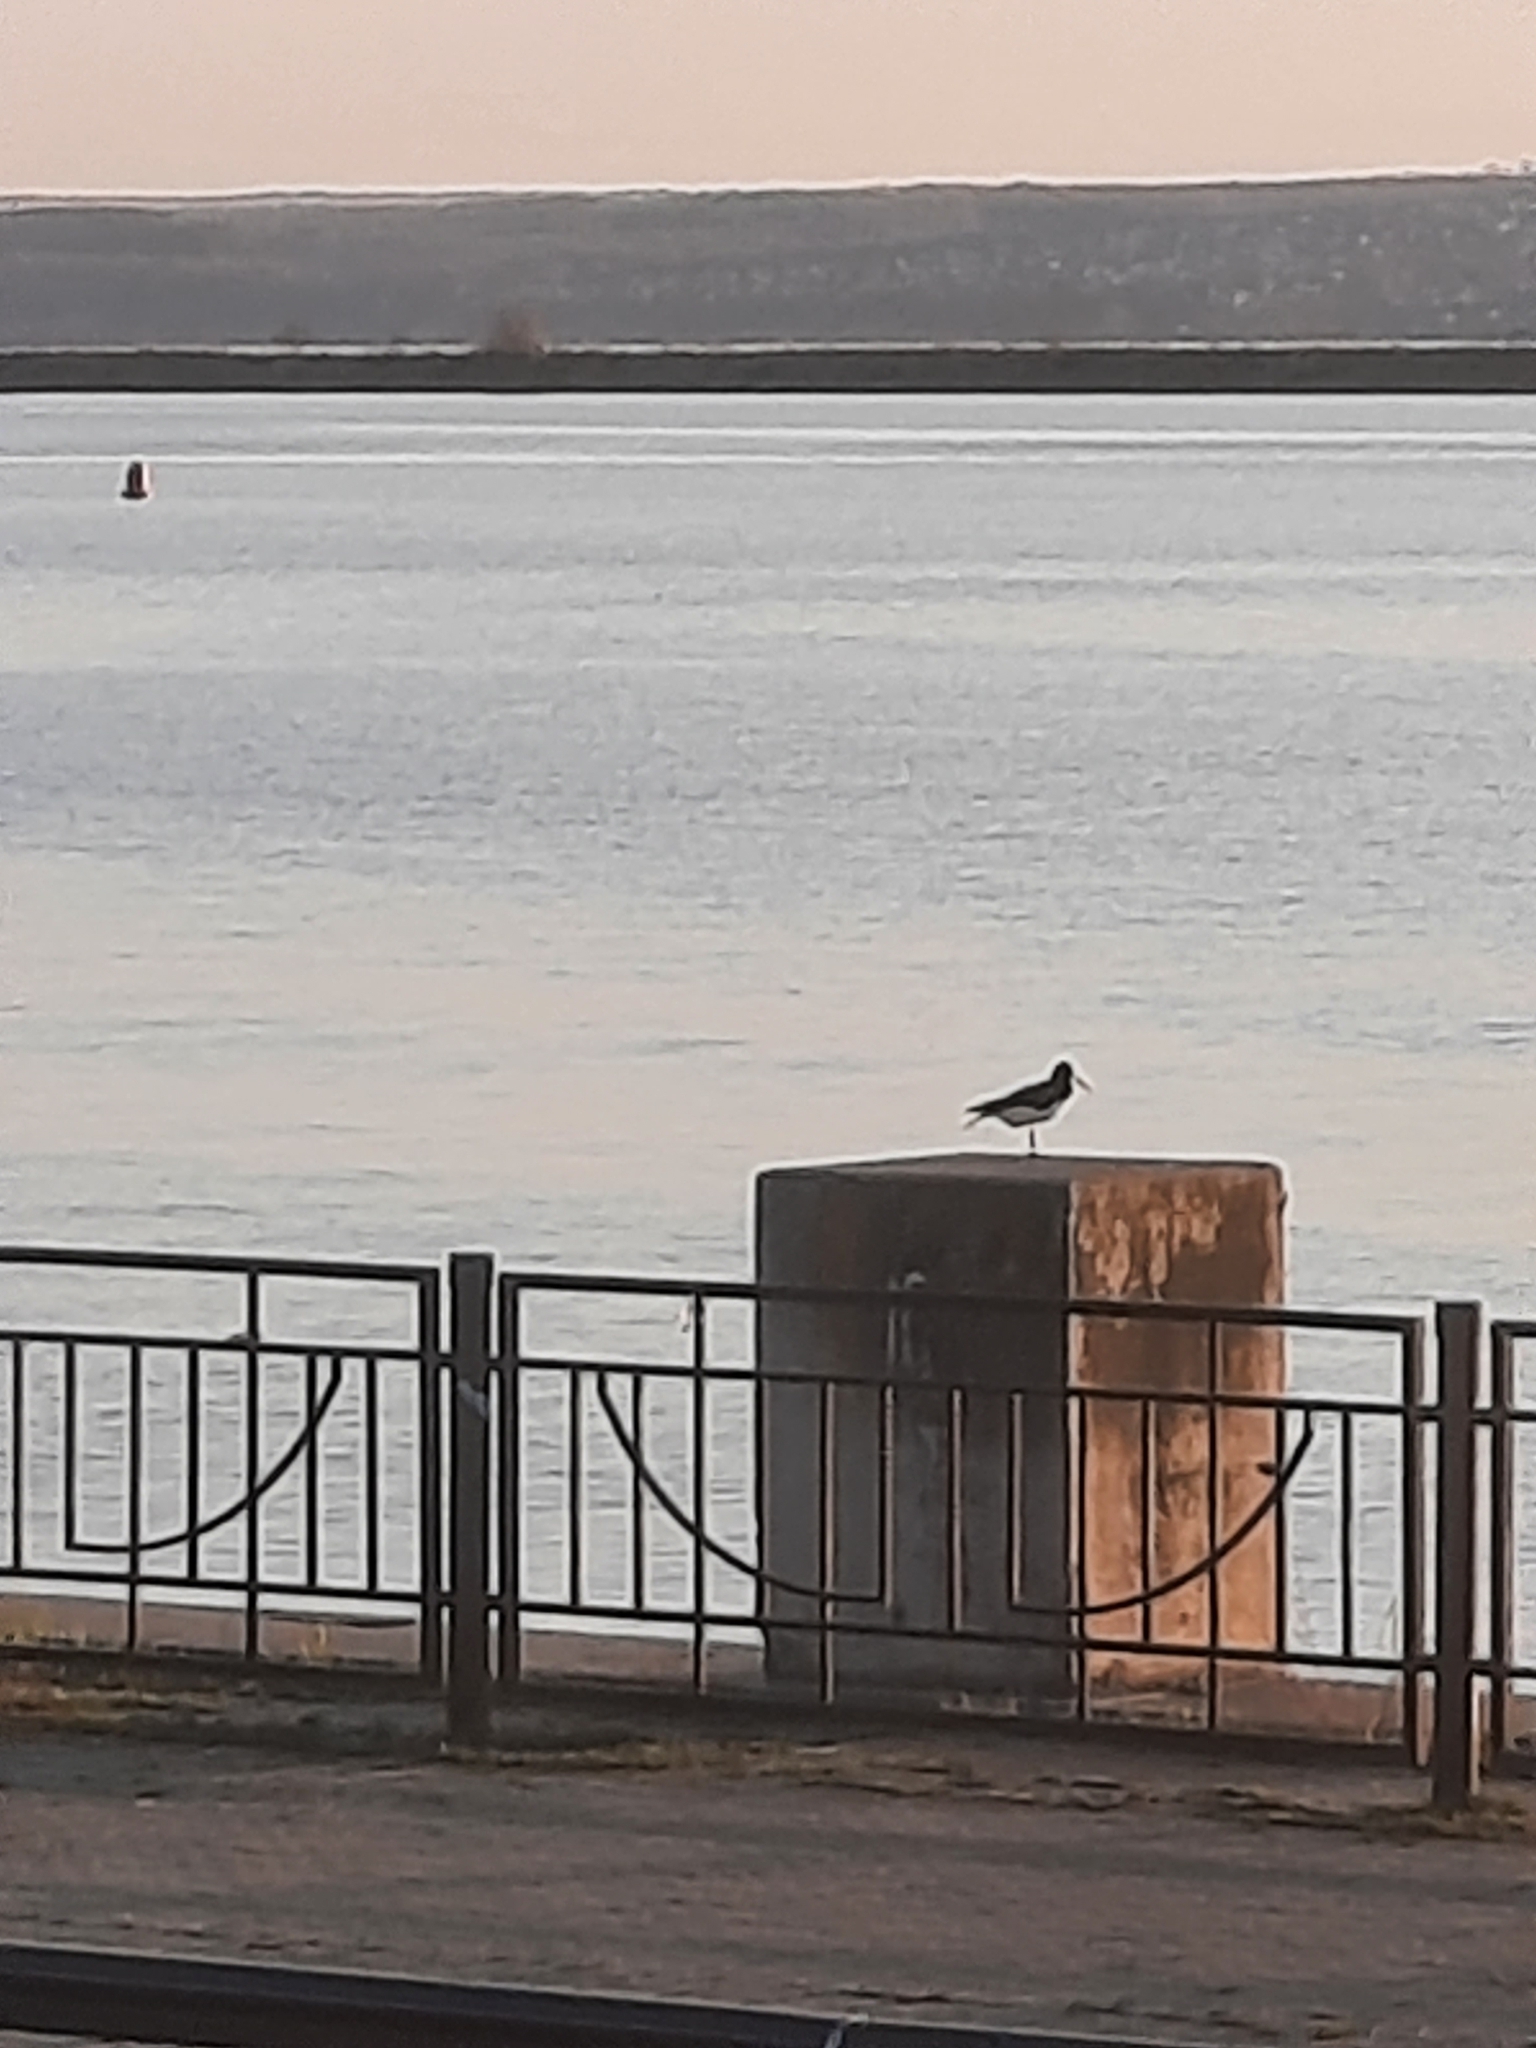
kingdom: Animalia
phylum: Chordata
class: Aves
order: Charadriiformes
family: Haematopodidae
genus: Haematopus
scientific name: Haematopus ostralegus
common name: Eurasian oystercatcher
